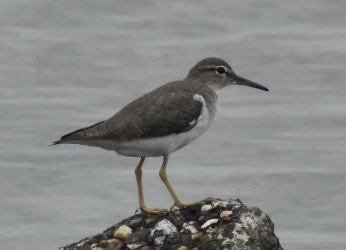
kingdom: Animalia
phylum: Chordata
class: Aves
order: Charadriiformes
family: Scolopacidae
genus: Actitis
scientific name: Actitis macularius
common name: Spotted sandpiper
